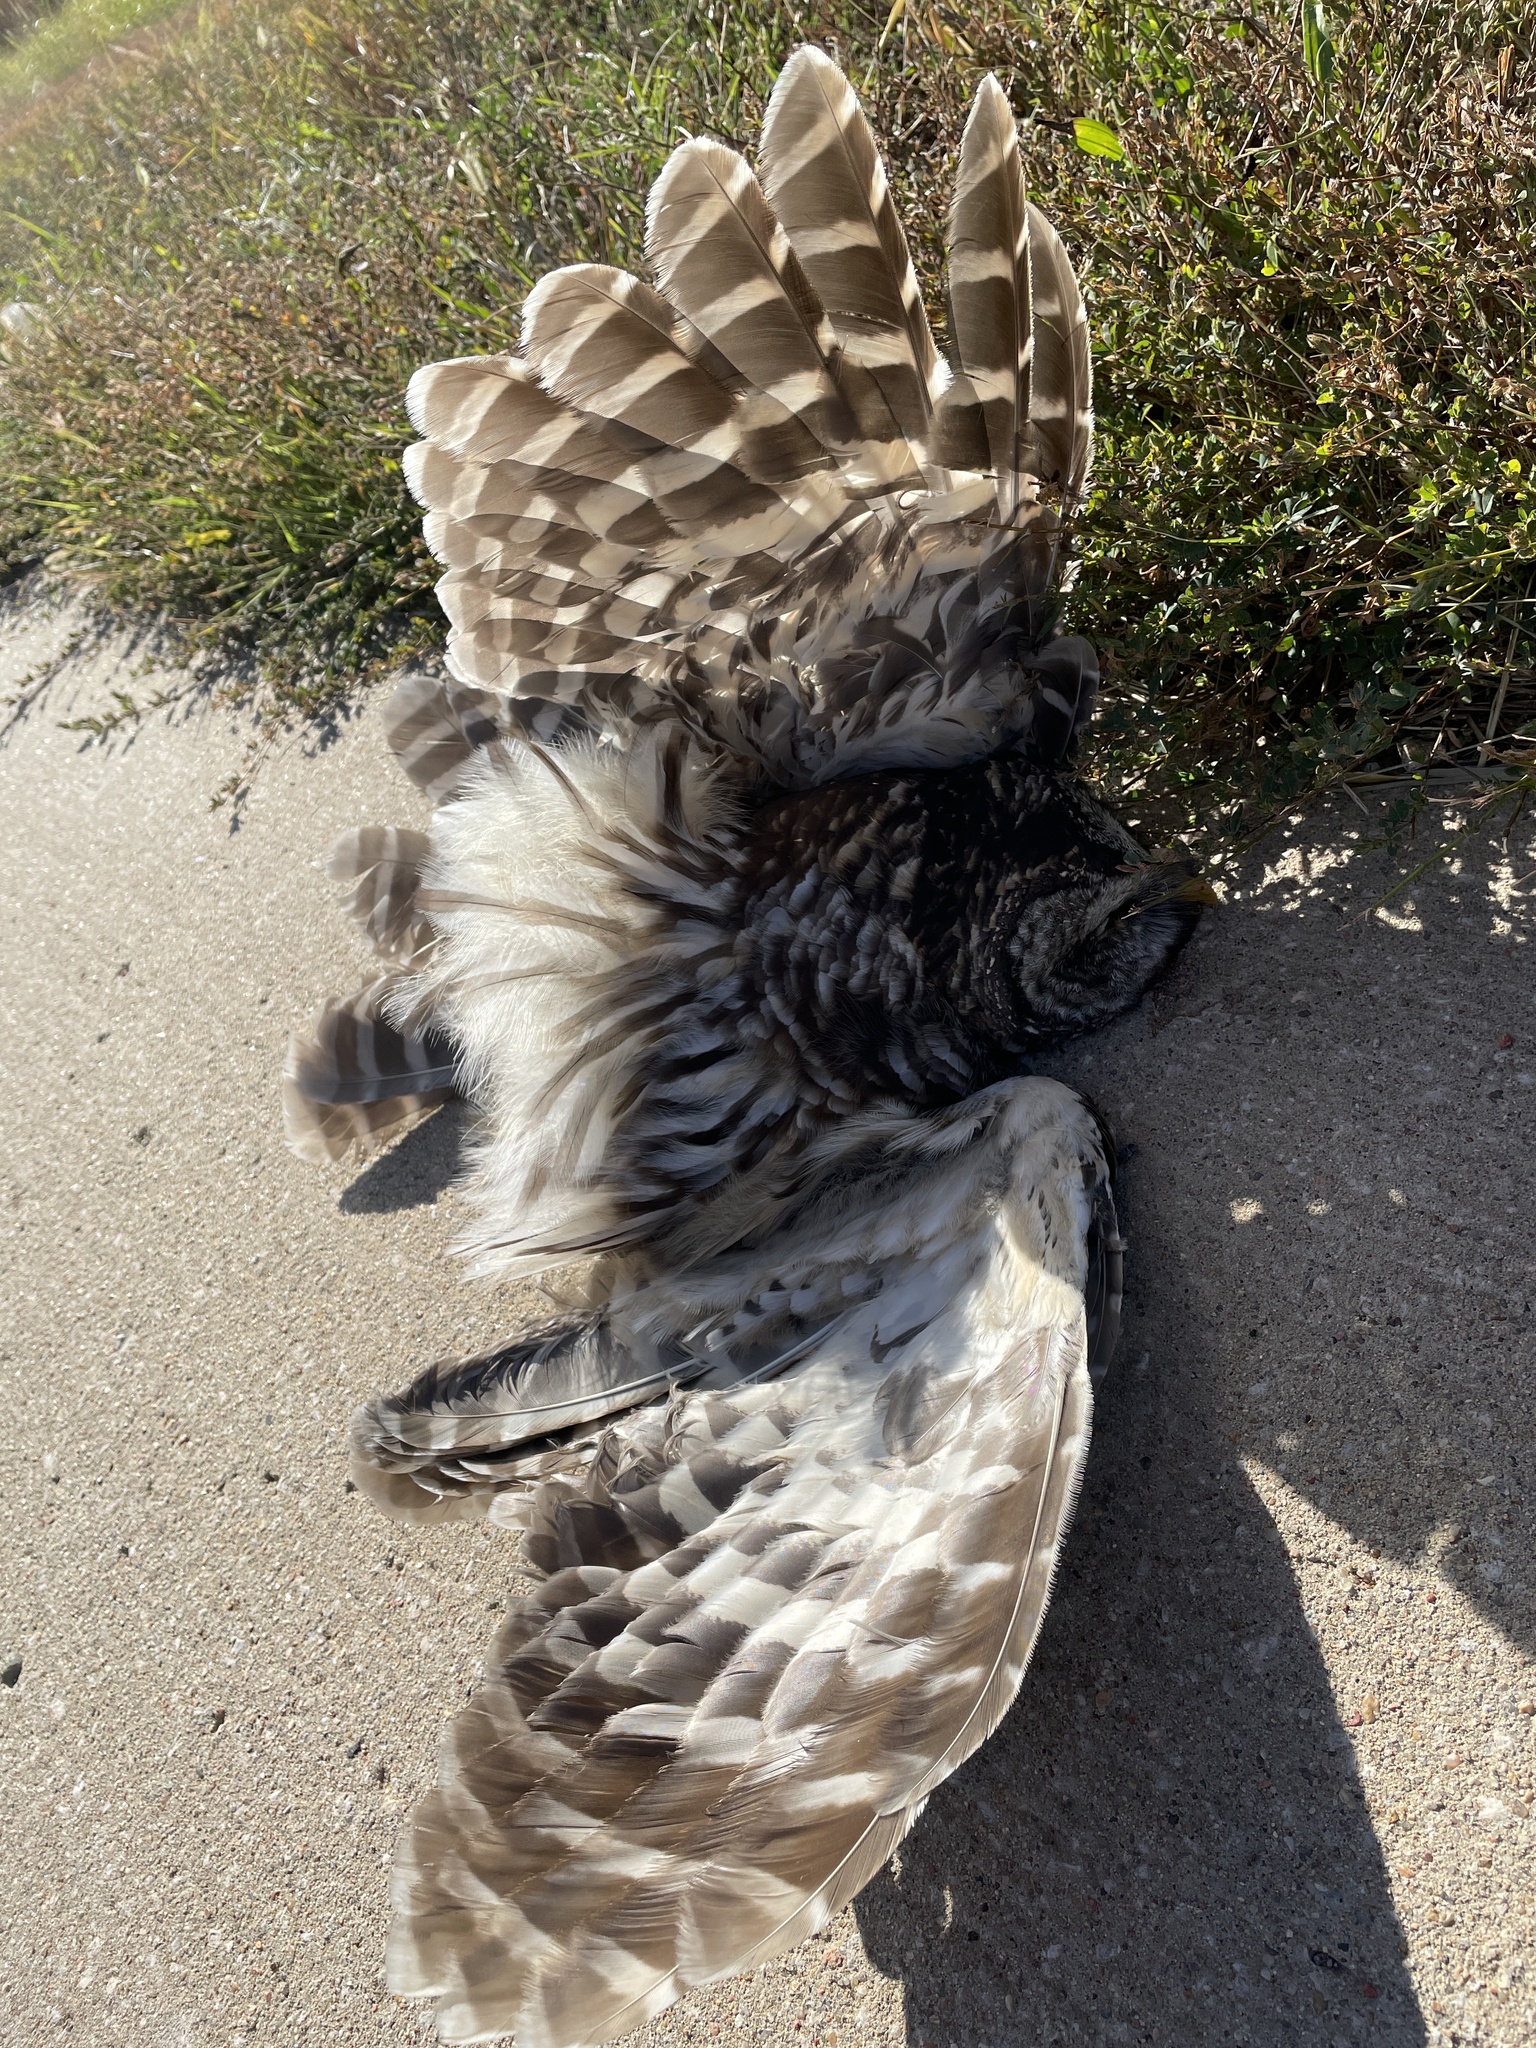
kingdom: Animalia
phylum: Chordata
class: Aves
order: Strigiformes
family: Strigidae
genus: Strix
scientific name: Strix varia
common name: Barred owl
